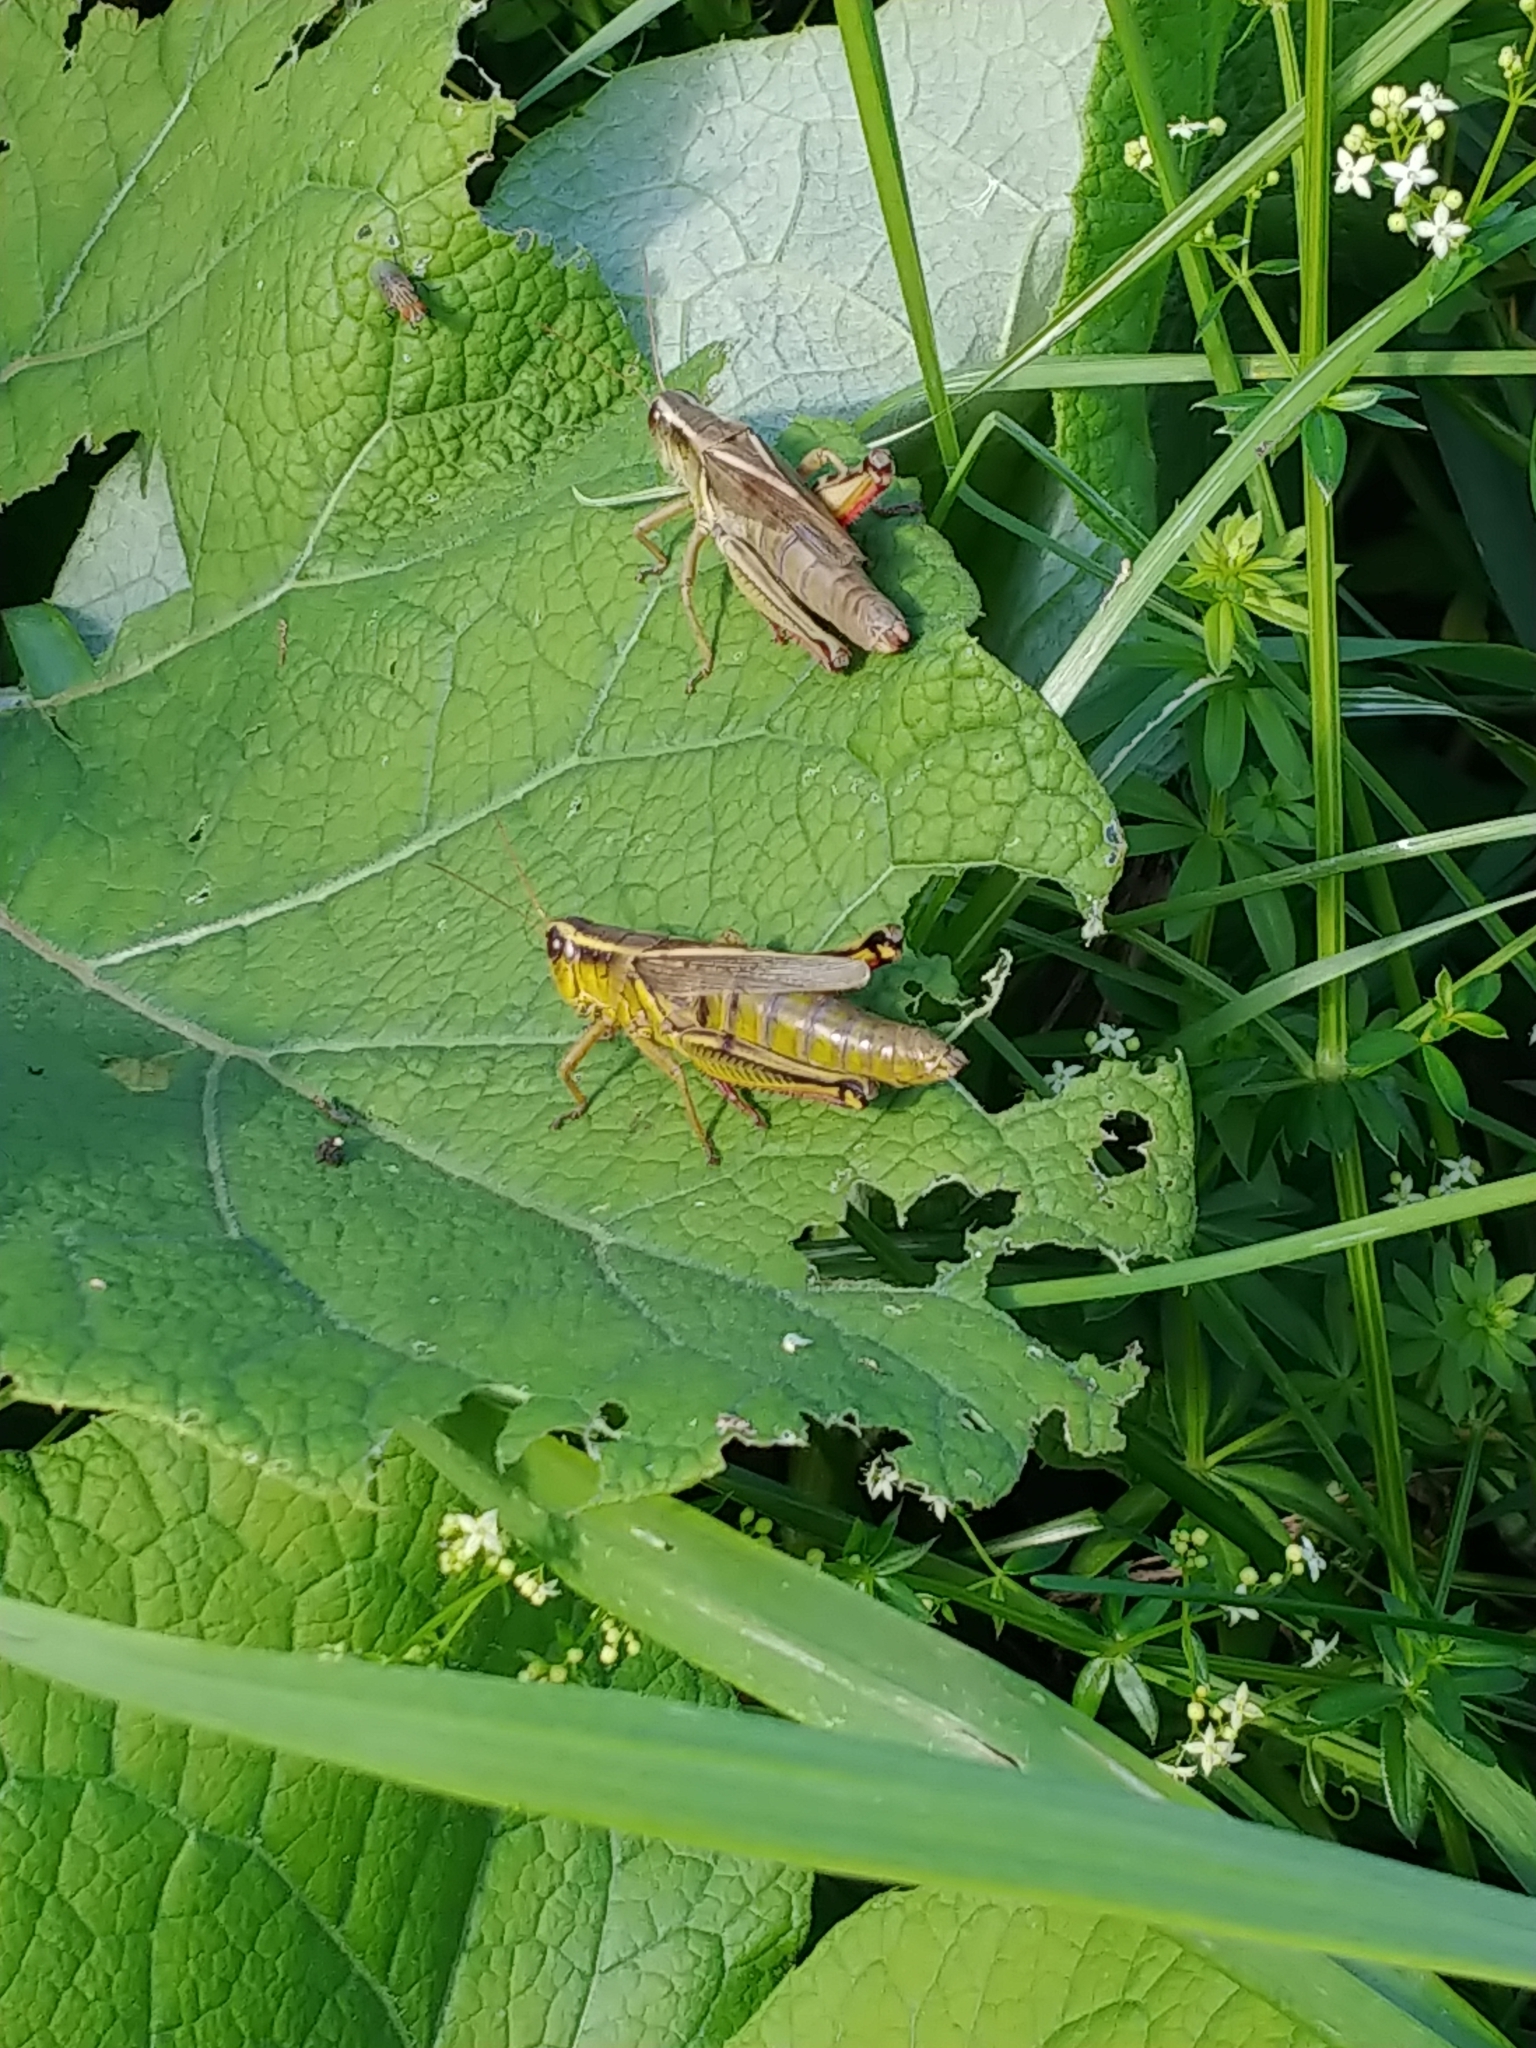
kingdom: Animalia
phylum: Arthropoda
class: Insecta
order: Orthoptera
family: Acrididae
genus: Melanoplus
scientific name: Melanoplus bivittatus
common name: Two-striped grasshopper
